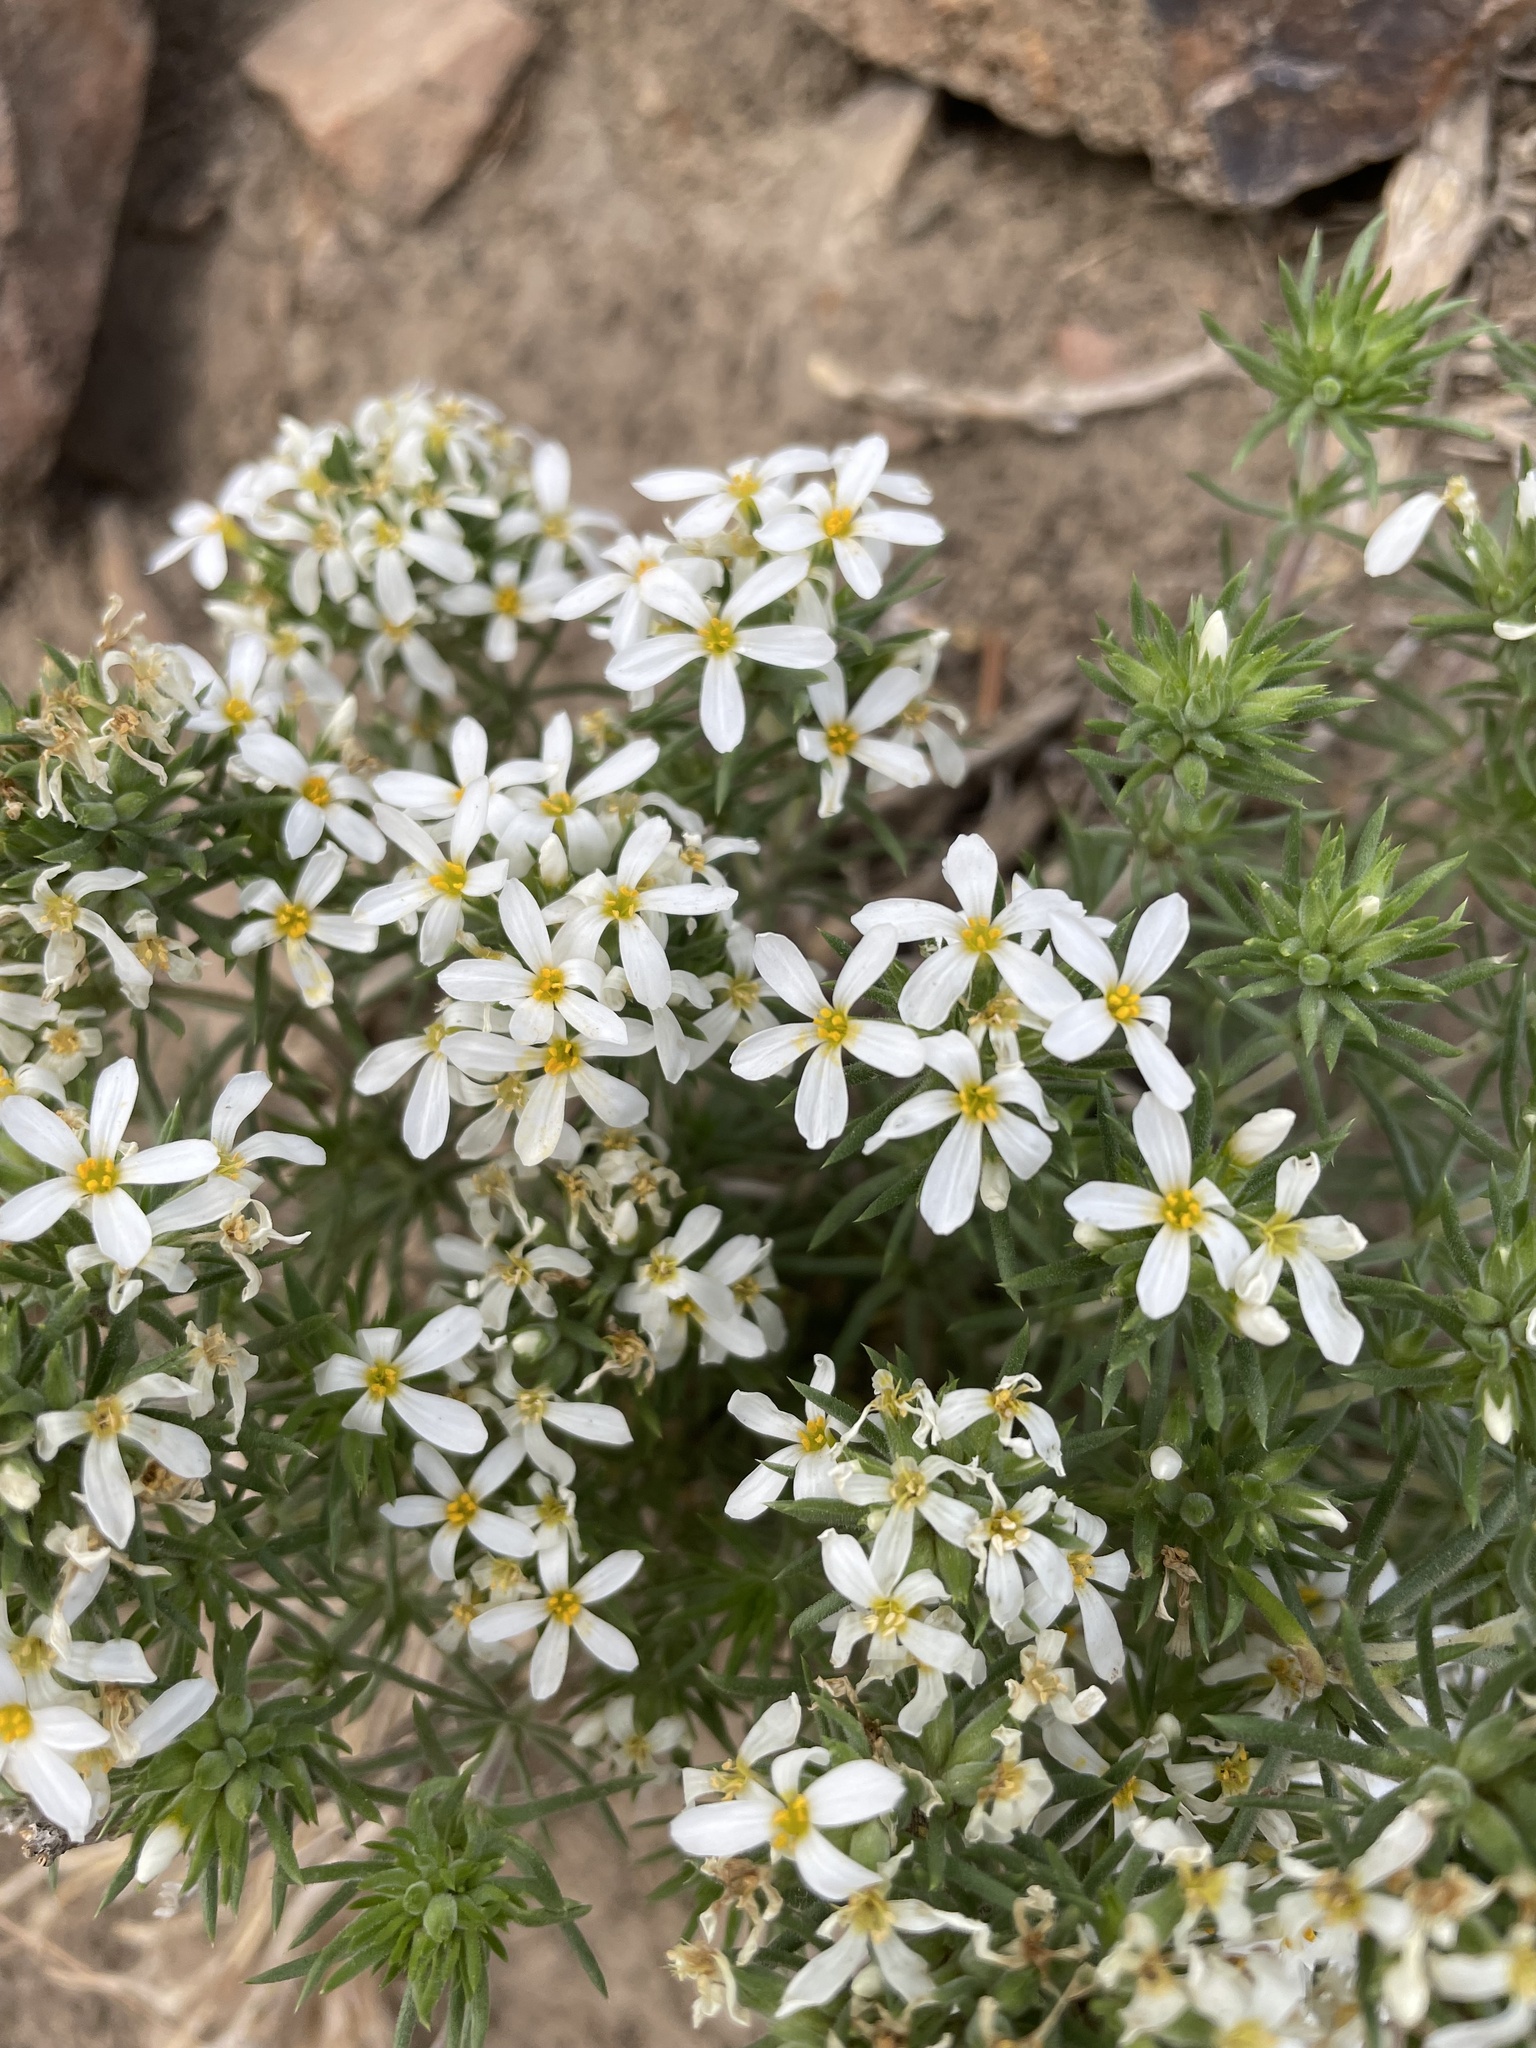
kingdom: Plantae
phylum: Tracheophyta
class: Magnoliopsida
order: Ericales
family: Polemoniaceae
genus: Leptosiphon
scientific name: Leptosiphon nuttallii
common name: Nuttall's linanthus
